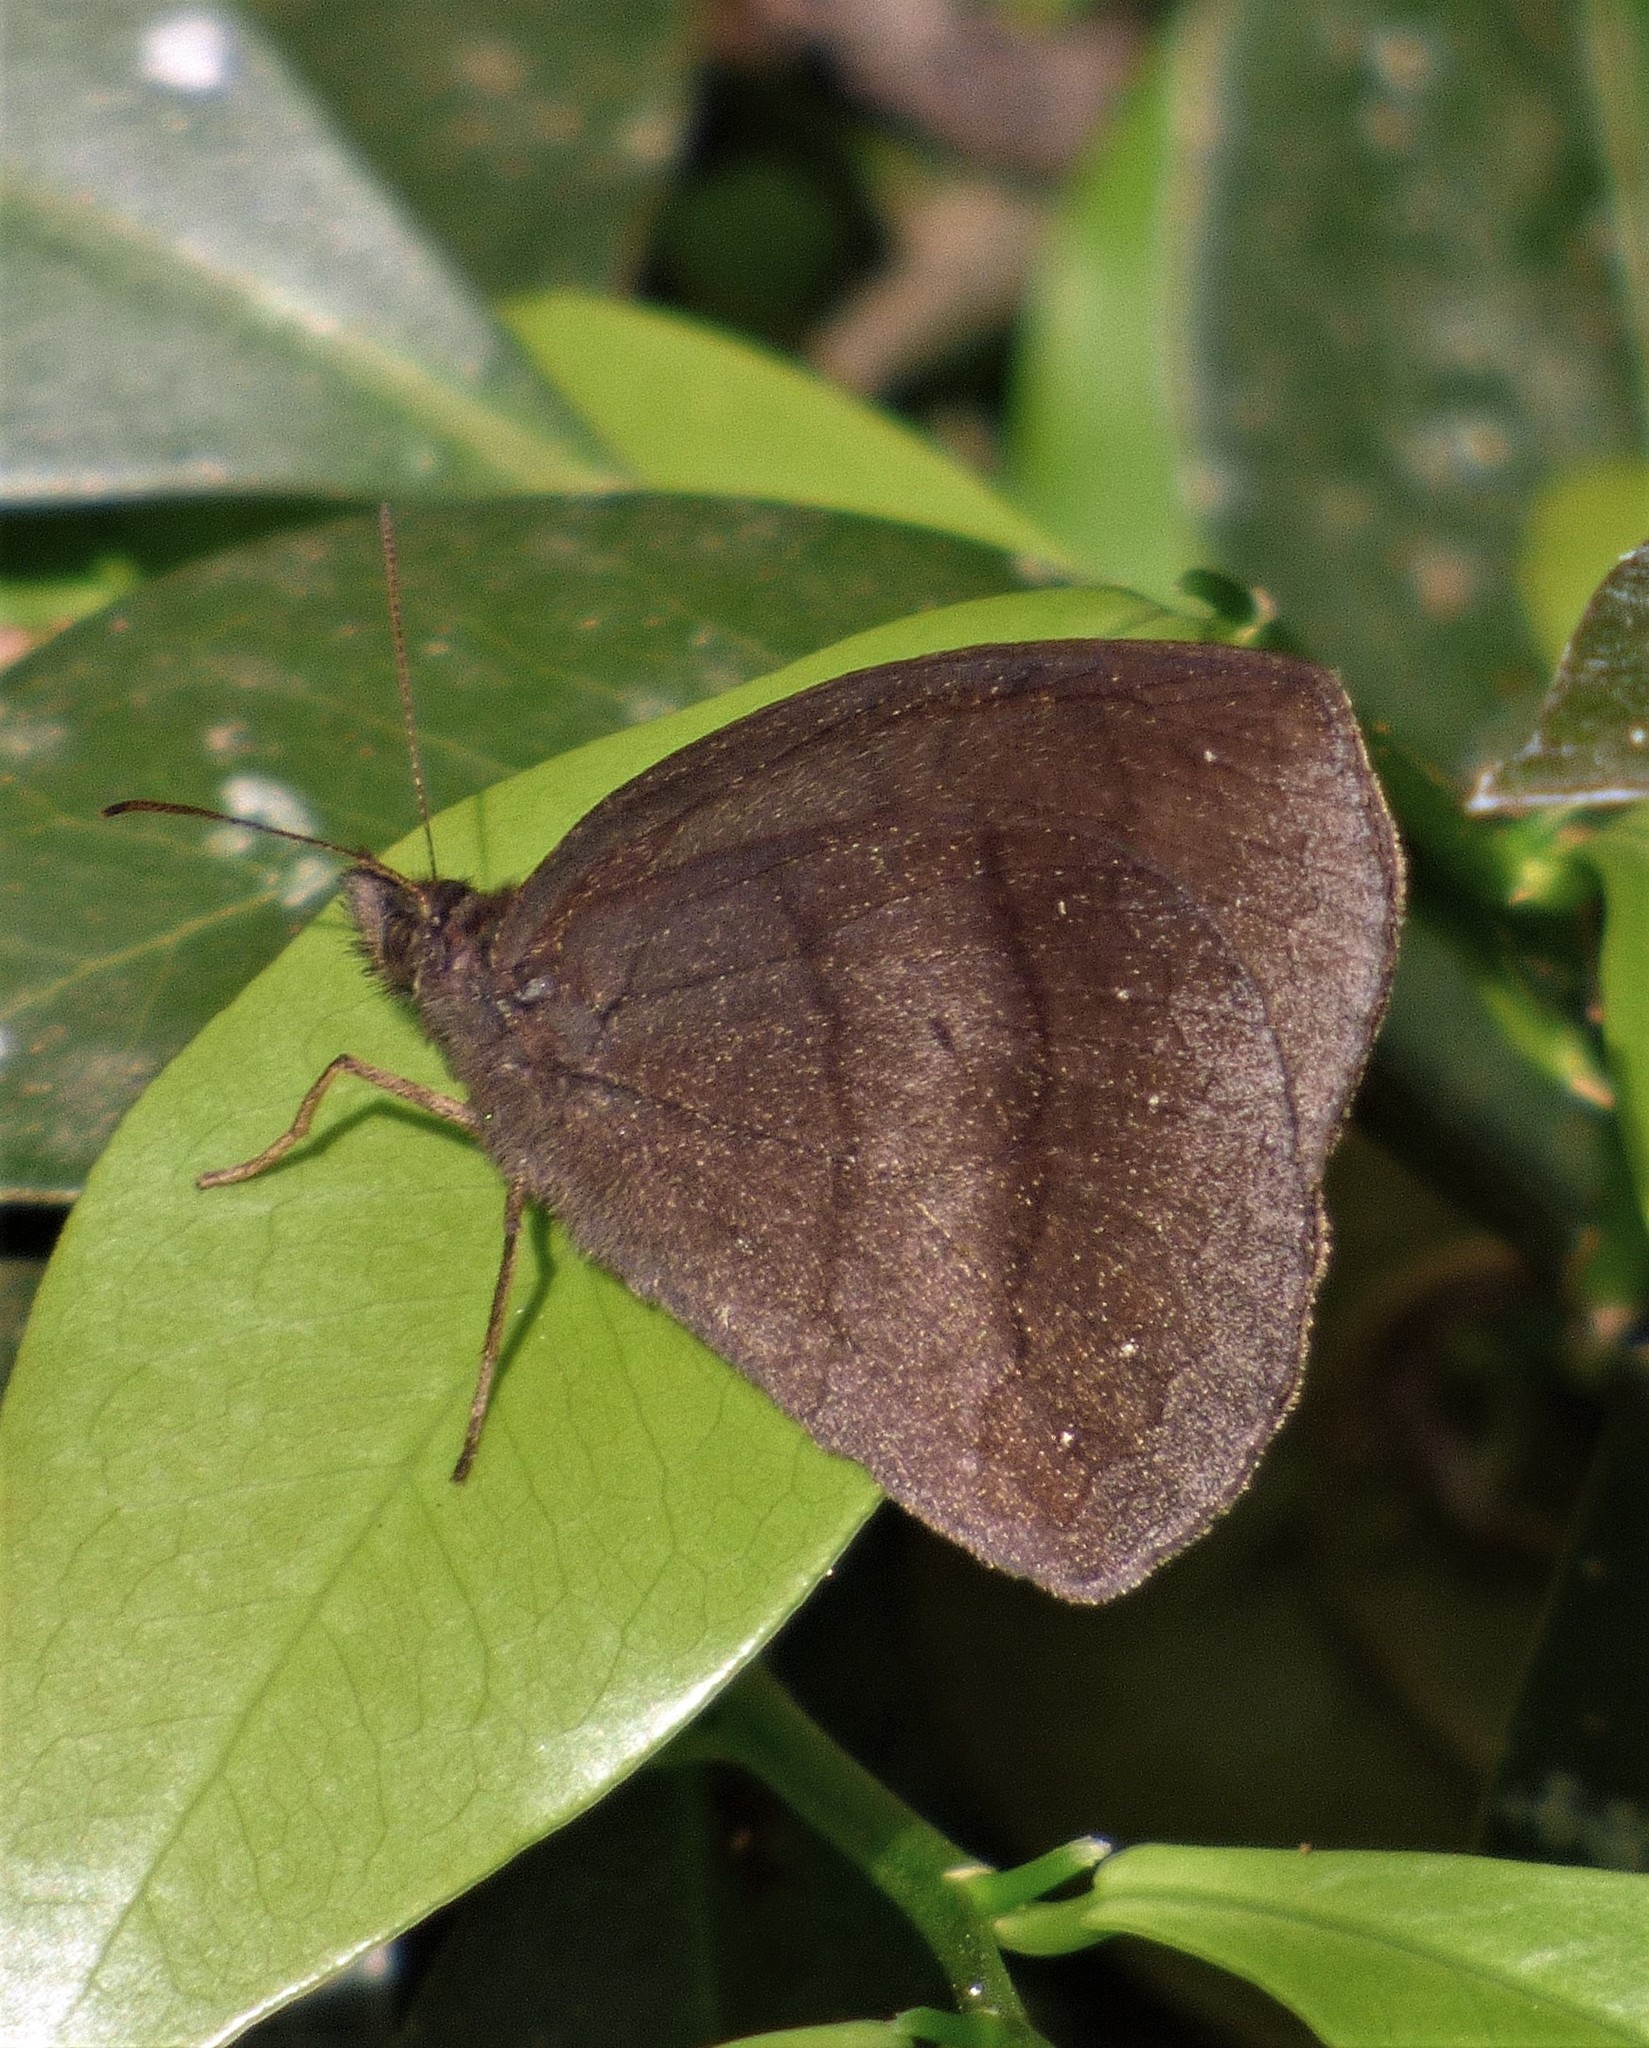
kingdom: Animalia
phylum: Arthropoda
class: Insecta
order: Lepidoptera
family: Nymphalidae
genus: Forsterinaria
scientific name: Forsterinaria quantius
